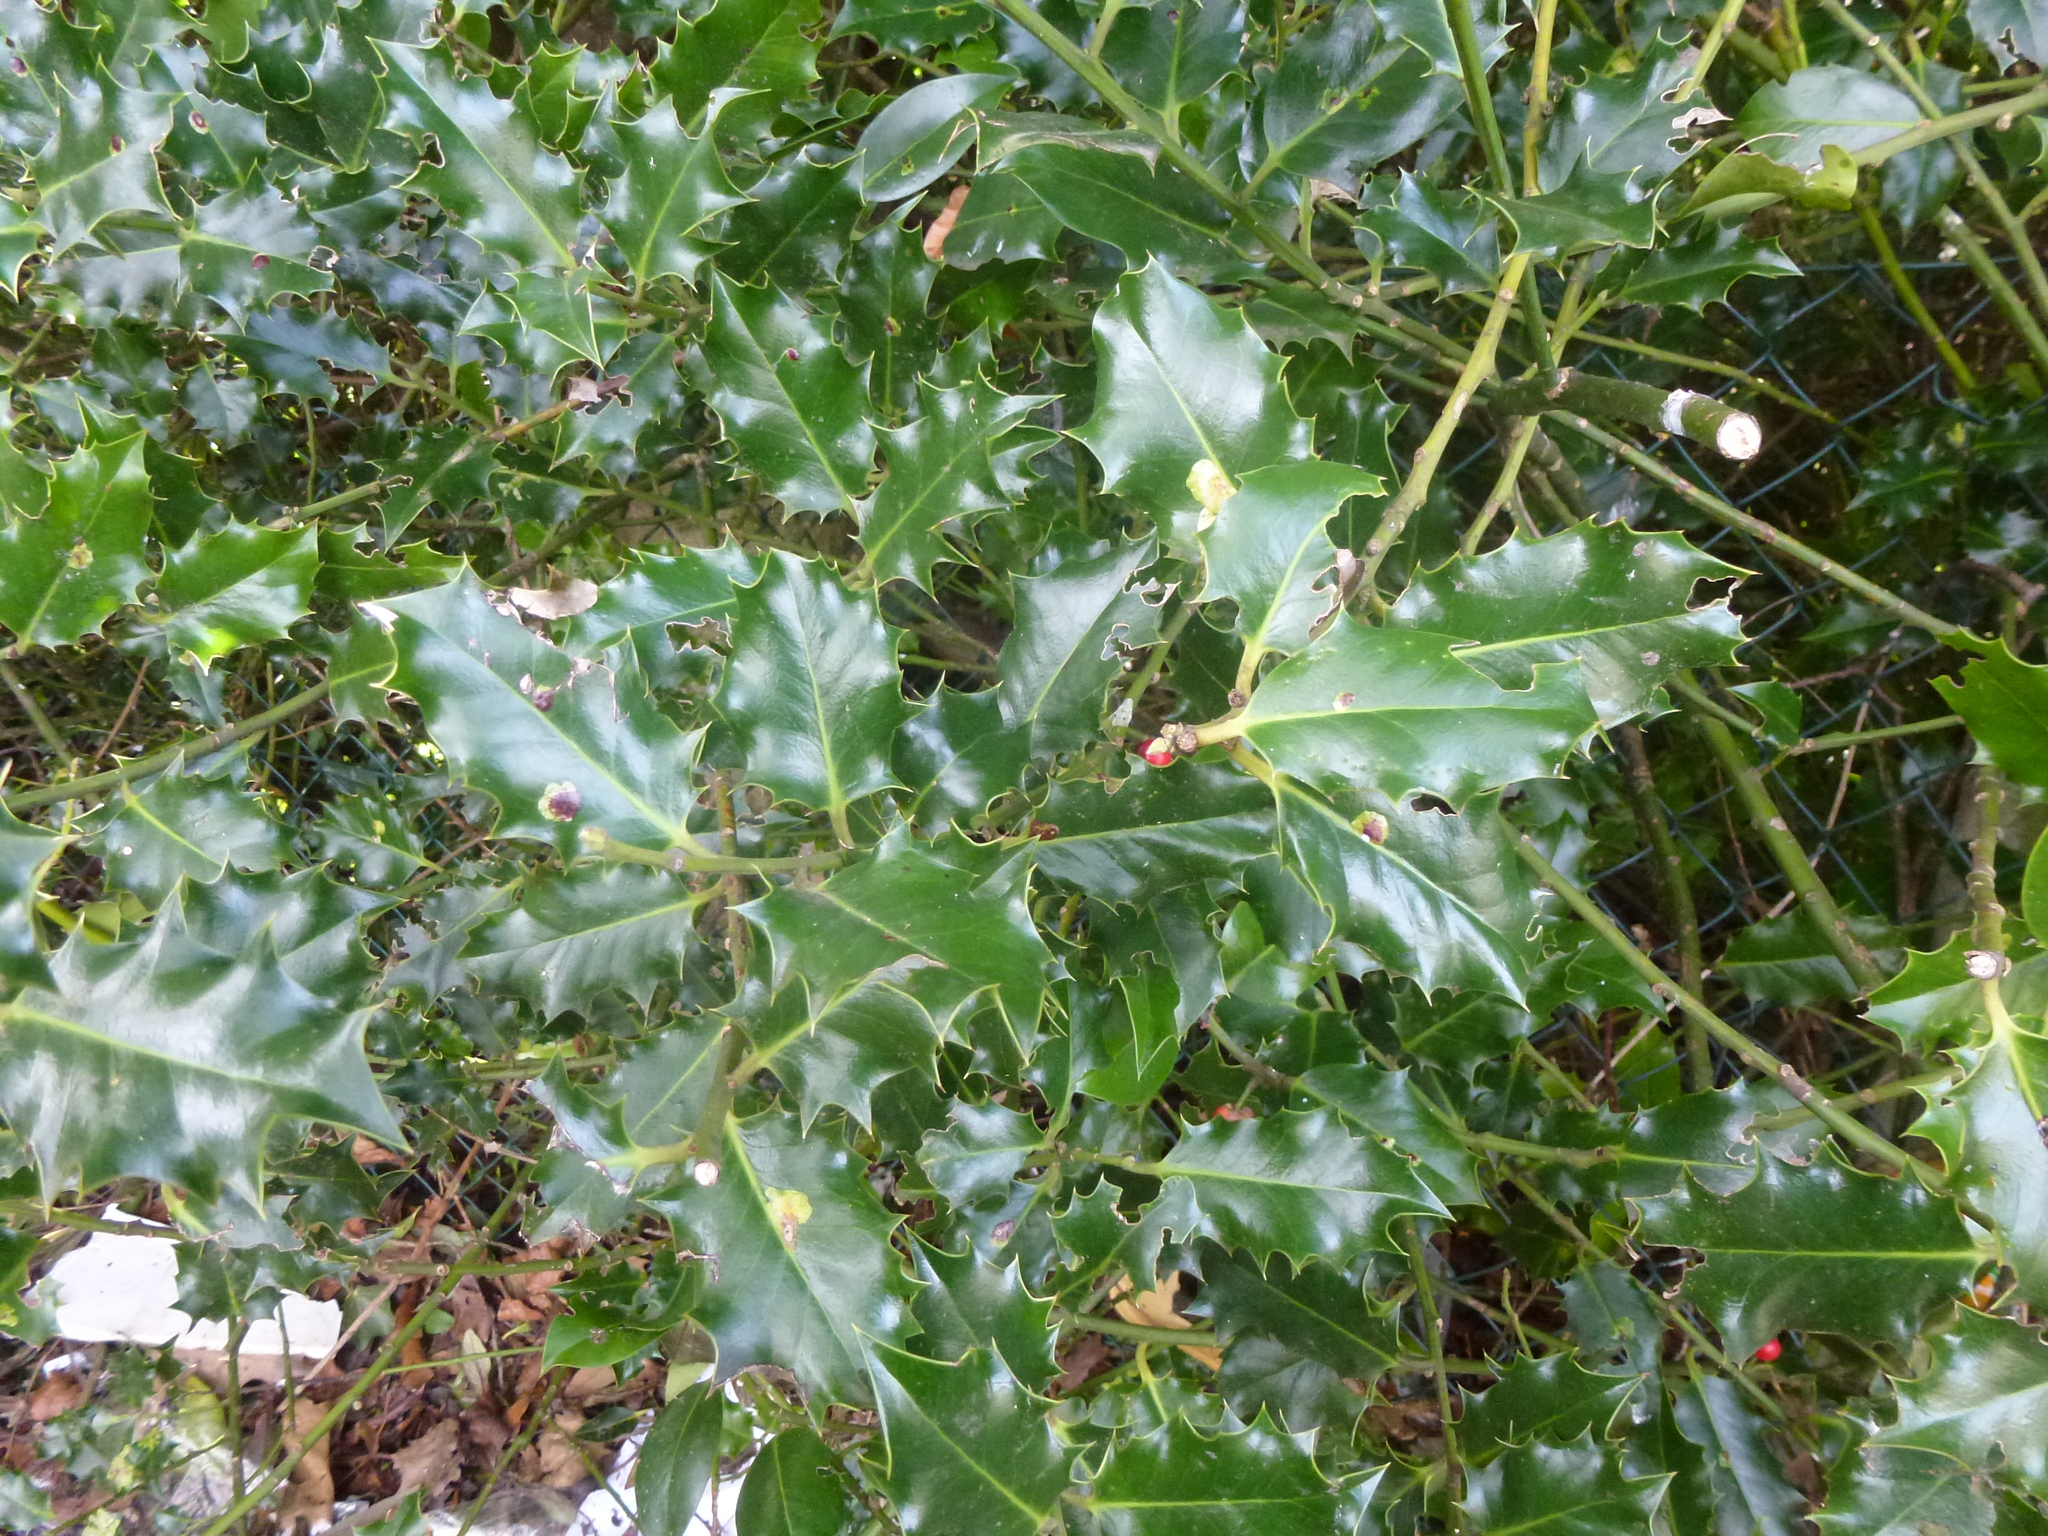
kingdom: Plantae
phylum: Tracheophyta
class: Magnoliopsida
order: Aquifoliales
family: Aquifoliaceae
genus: Ilex
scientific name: Ilex aquifolium
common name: English holly
